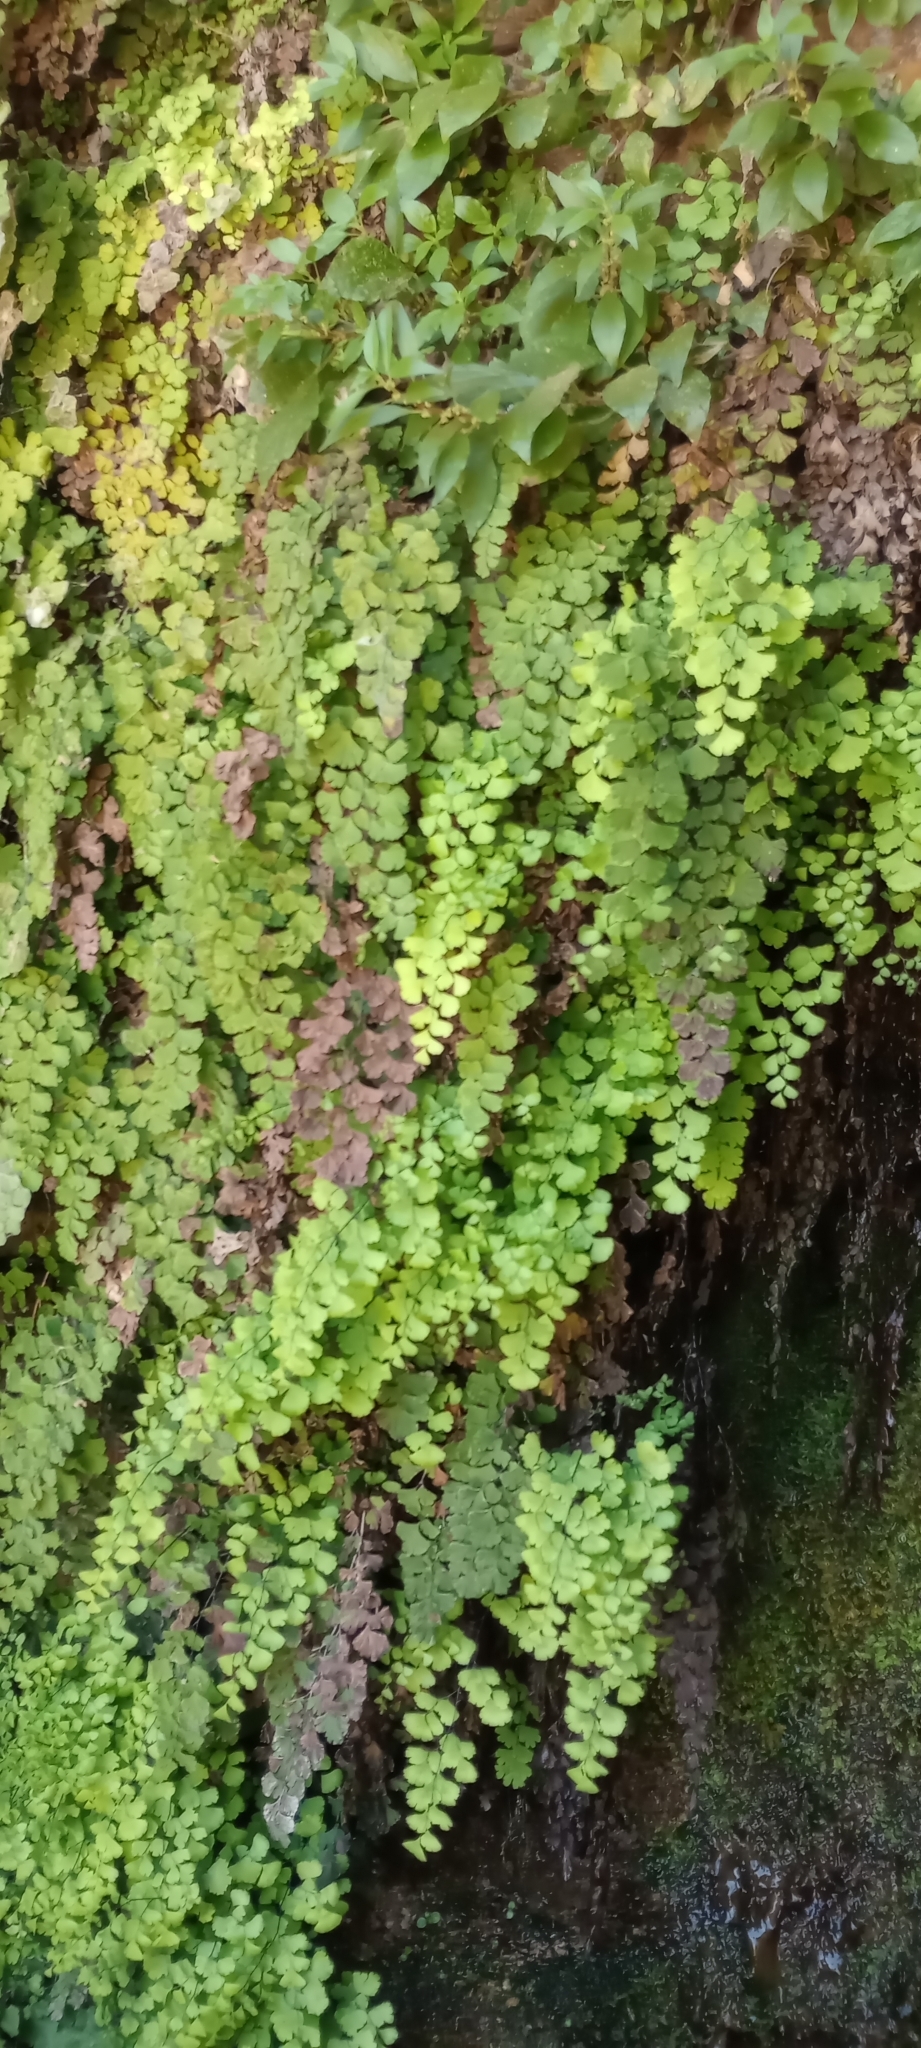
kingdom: Plantae
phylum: Tracheophyta
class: Polypodiopsida
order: Polypodiales
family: Pteridaceae
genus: Adiantum
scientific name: Adiantum capillus-veneris
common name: Maidenhair fern
